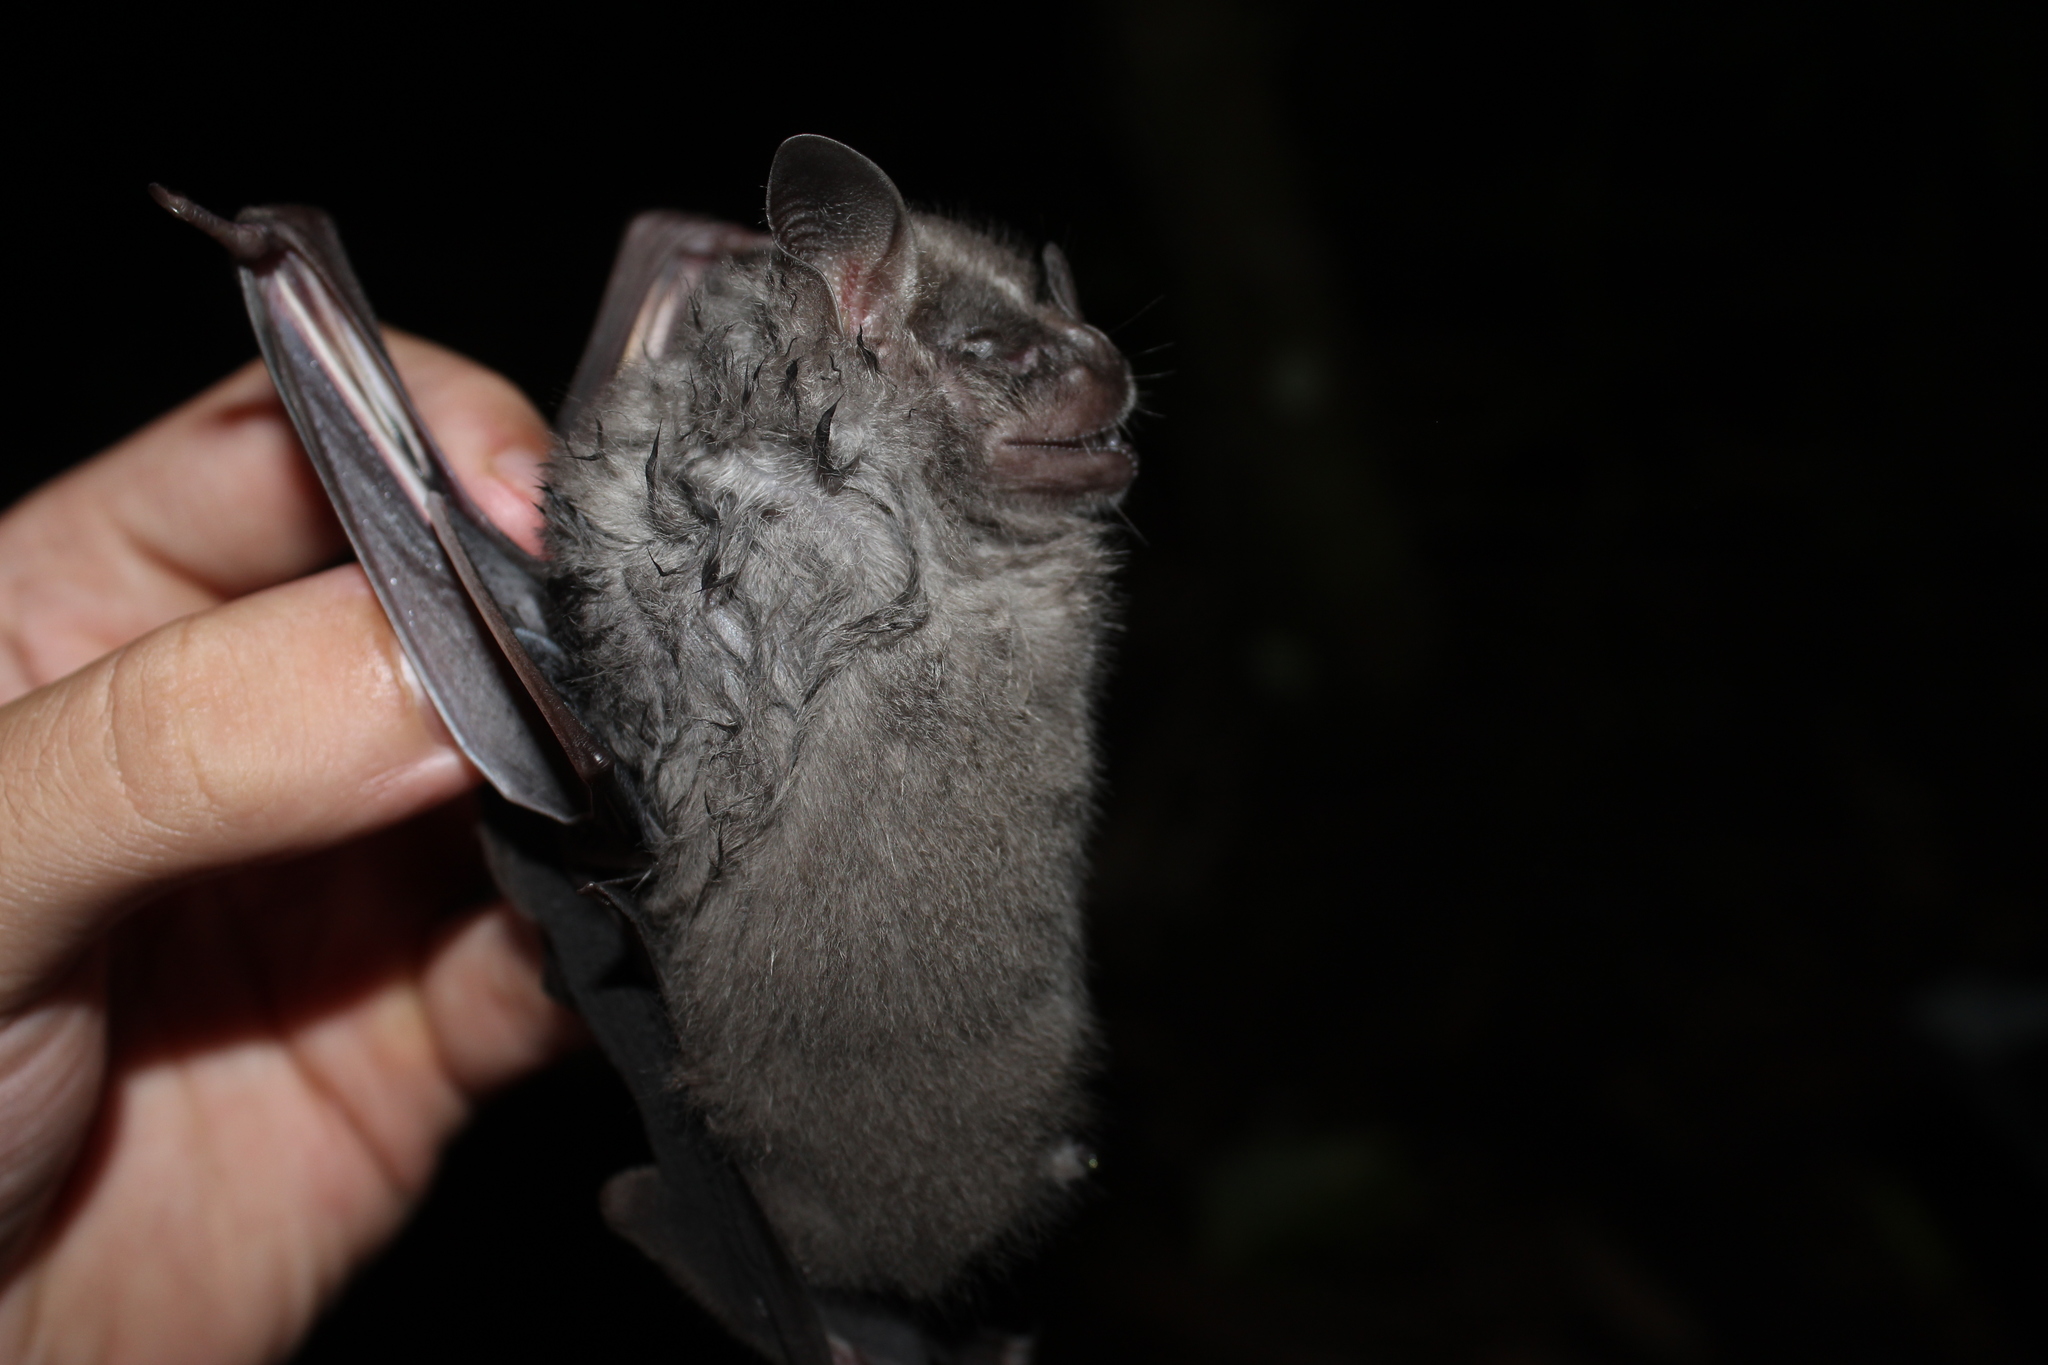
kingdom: Animalia
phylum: Chordata
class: Mammalia
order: Chiroptera
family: Phyllostomidae
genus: Artibeus
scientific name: Artibeus fimbriatus
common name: Fringed fruit-eating bat
